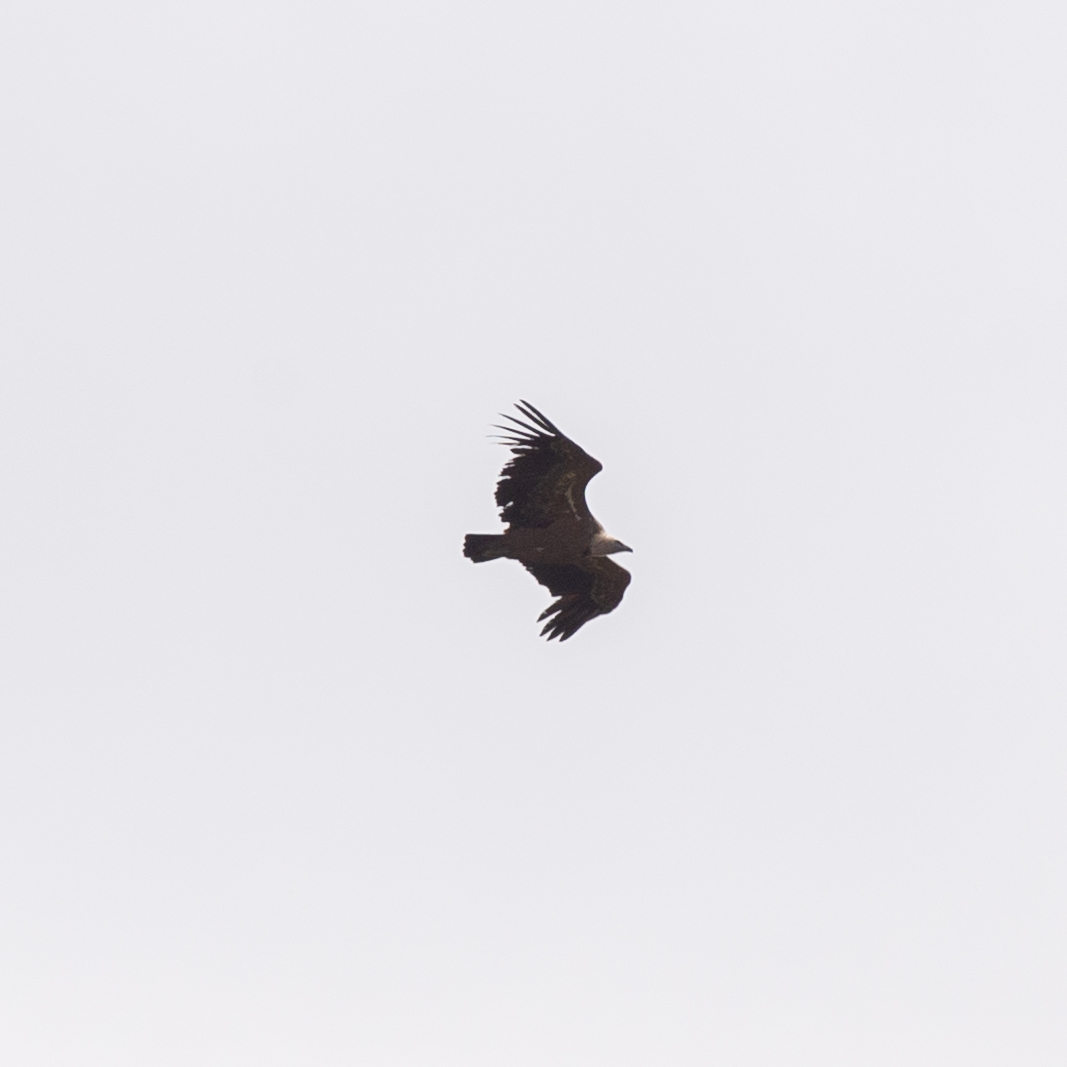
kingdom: Animalia
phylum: Chordata
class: Aves
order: Accipitriformes
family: Accipitridae
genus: Gyps
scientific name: Gyps fulvus
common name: Griffon vulture
